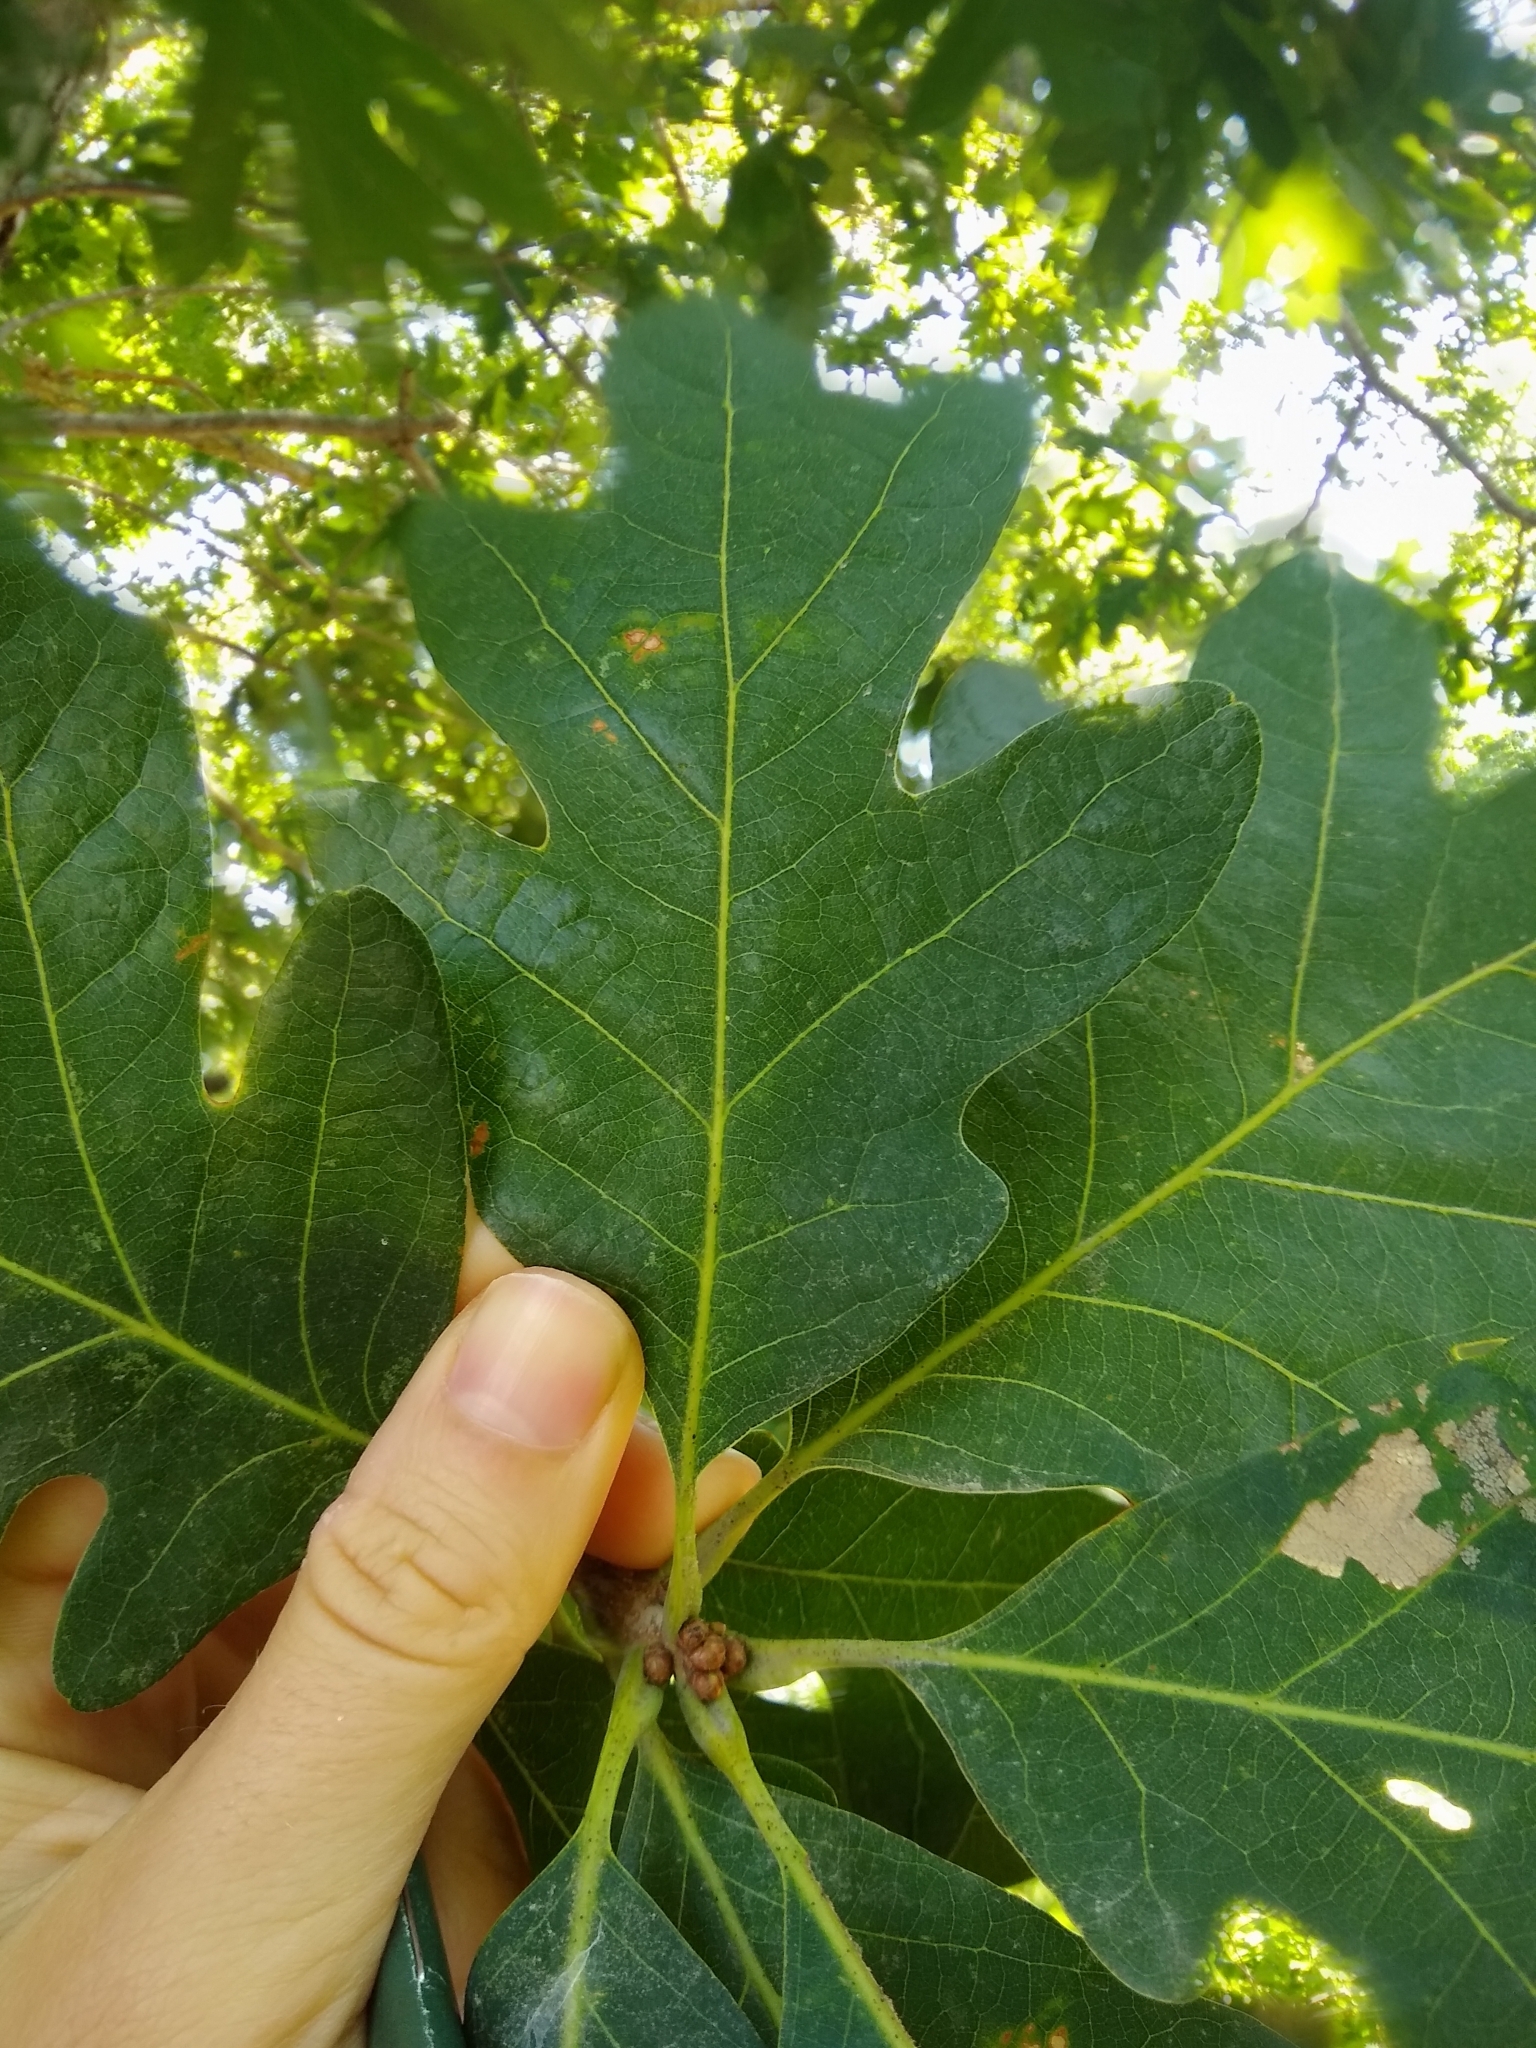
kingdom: Plantae
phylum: Tracheophyta
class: Magnoliopsida
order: Fagales
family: Fagaceae
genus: Quercus
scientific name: Quercus alba
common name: White oak
